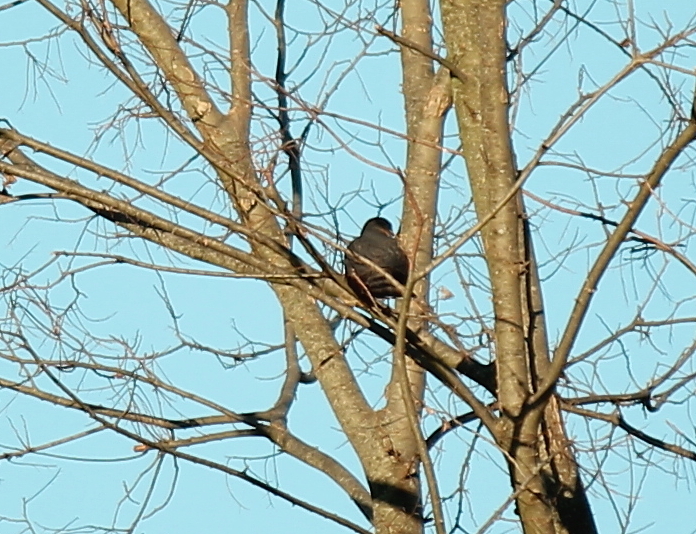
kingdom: Animalia
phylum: Chordata
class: Aves
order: Accipitriformes
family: Accipitridae
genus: Accipiter
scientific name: Accipiter cooperii
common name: Cooper's hawk
